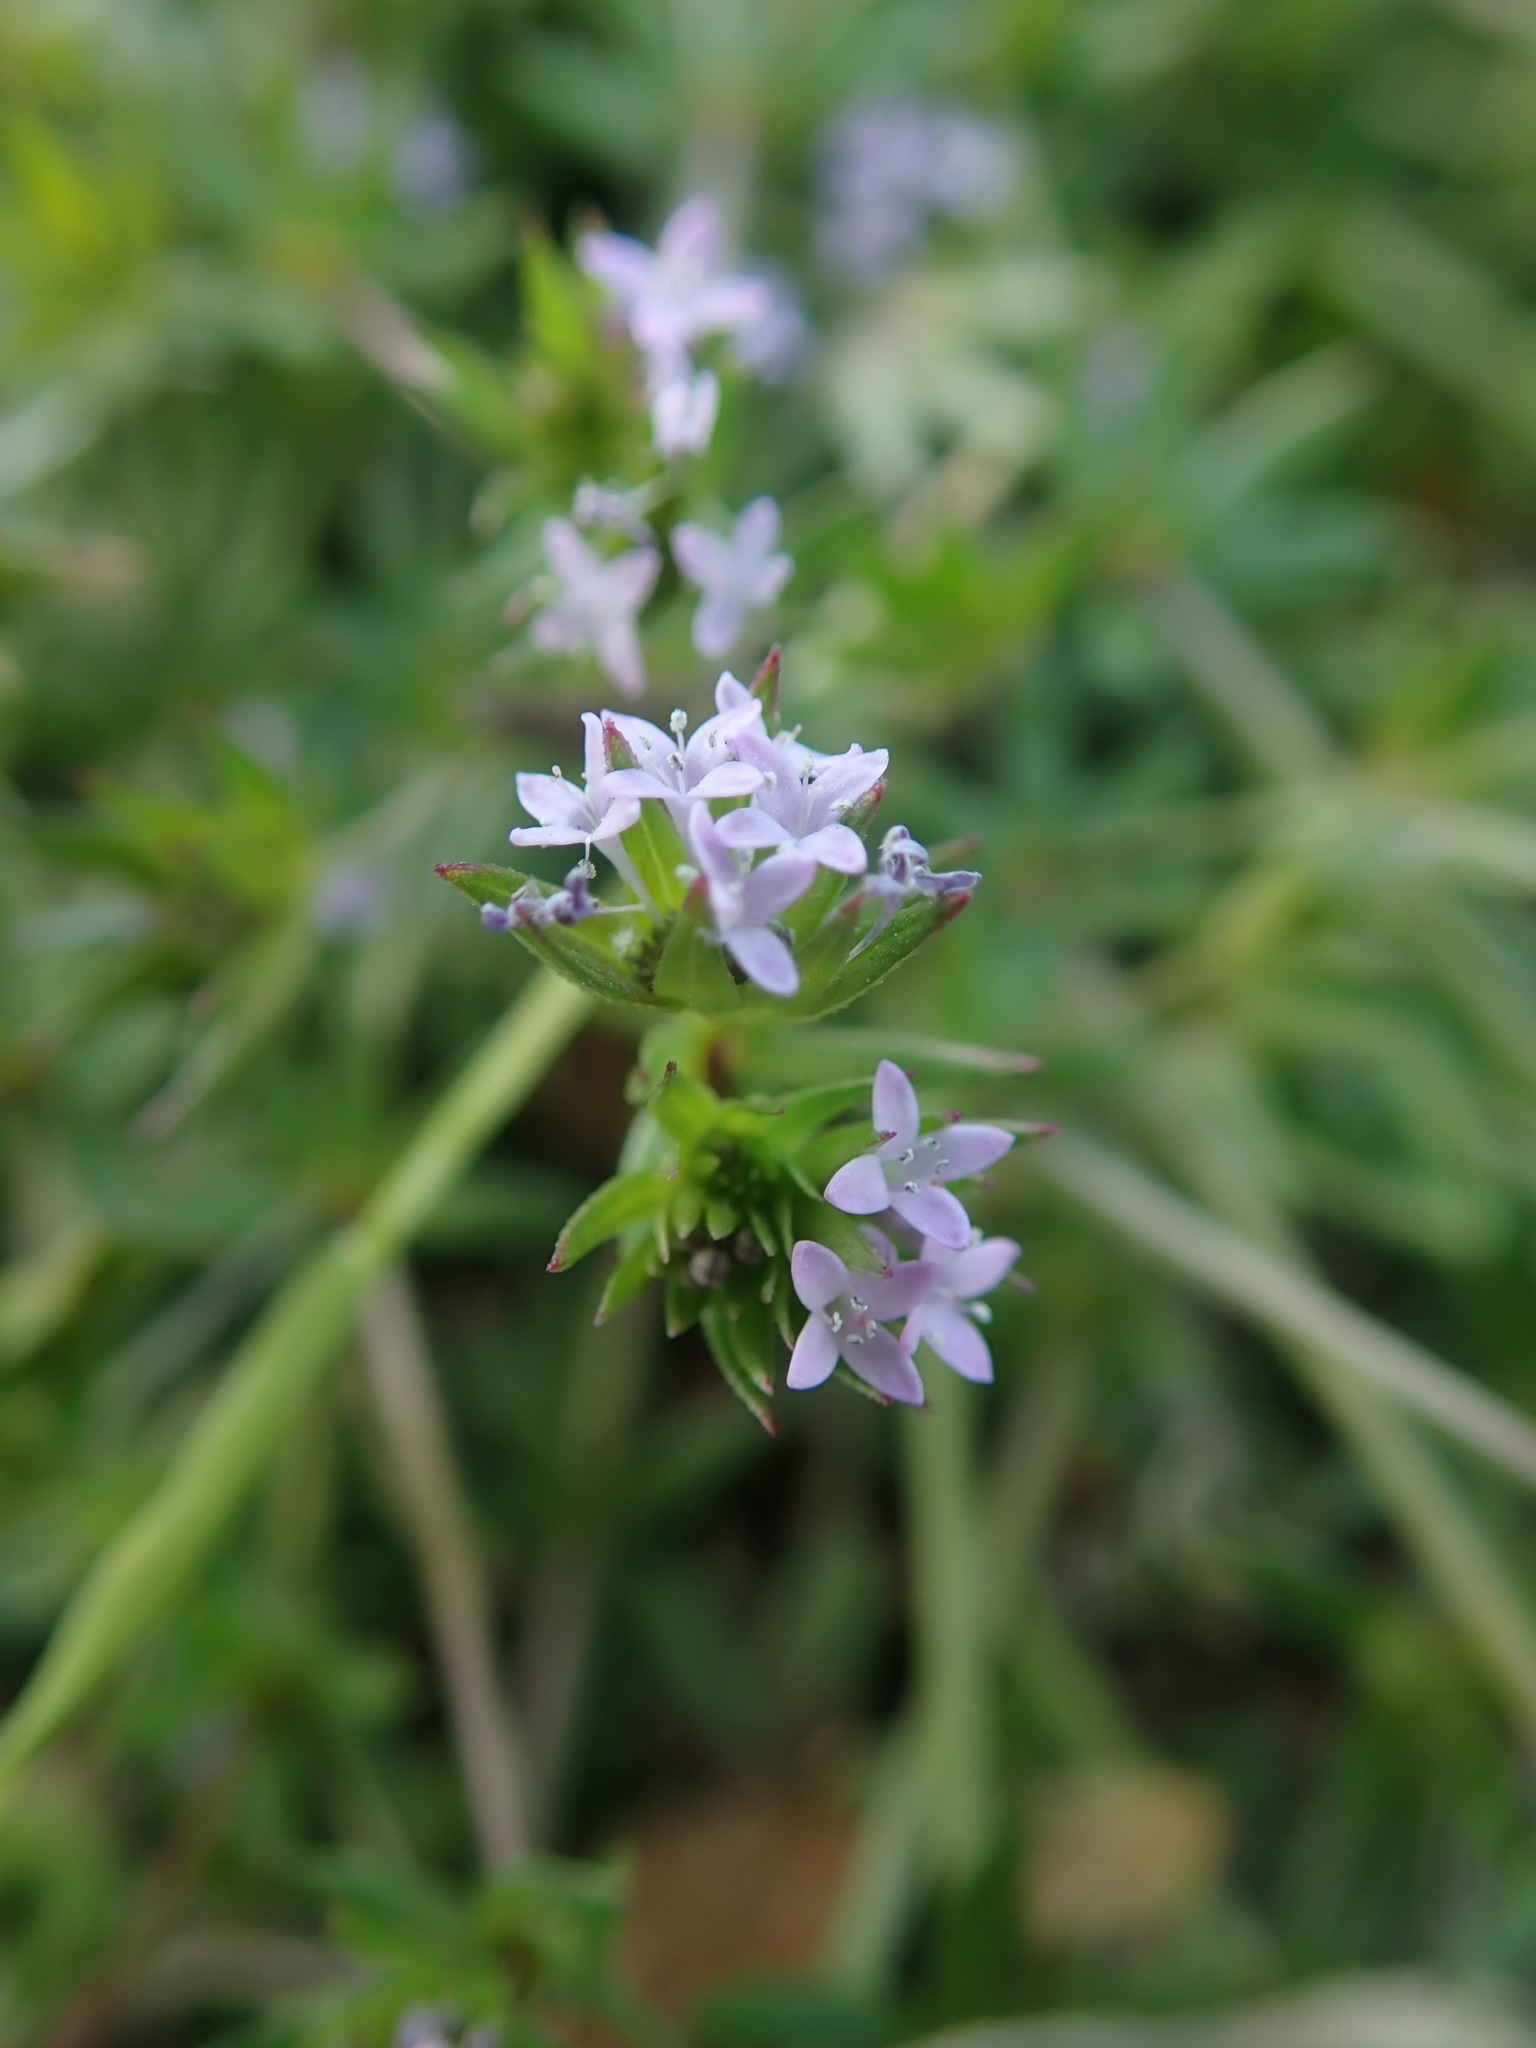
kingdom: Plantae
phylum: Tracheophyta
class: Magnoliopsida
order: Gentianales
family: Rubiaceae
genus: Sherardia
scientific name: Sherardia arvensis
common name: Field madder
